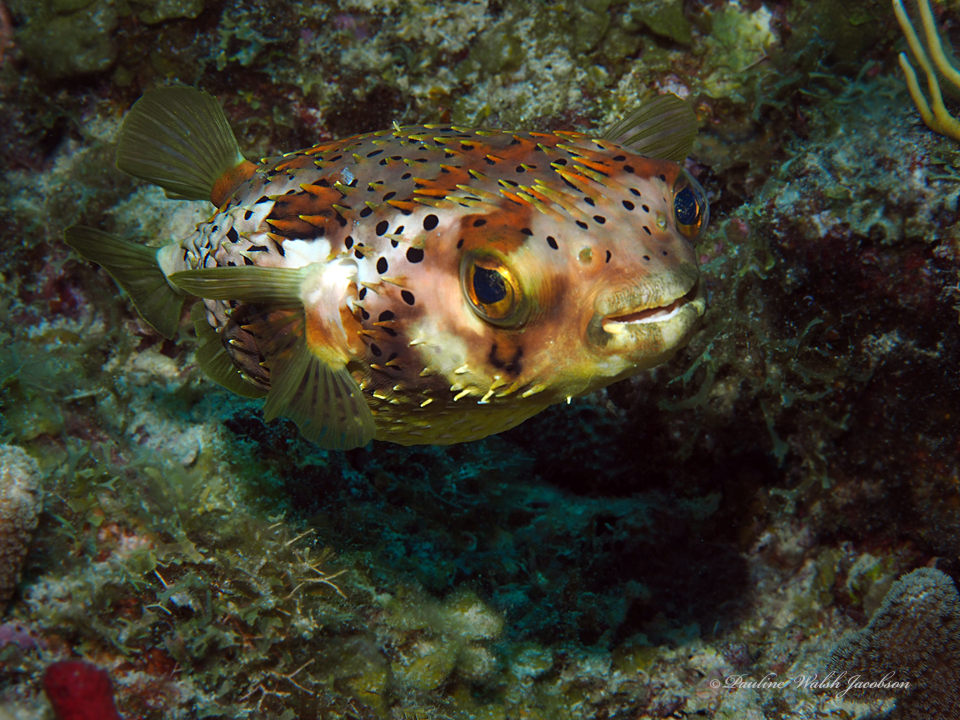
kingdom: Animalia
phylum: Chordata
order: Tetraodontiformes
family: Diodontidae
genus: Diodon
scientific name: Diodon holocanthus
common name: Balloonfish
